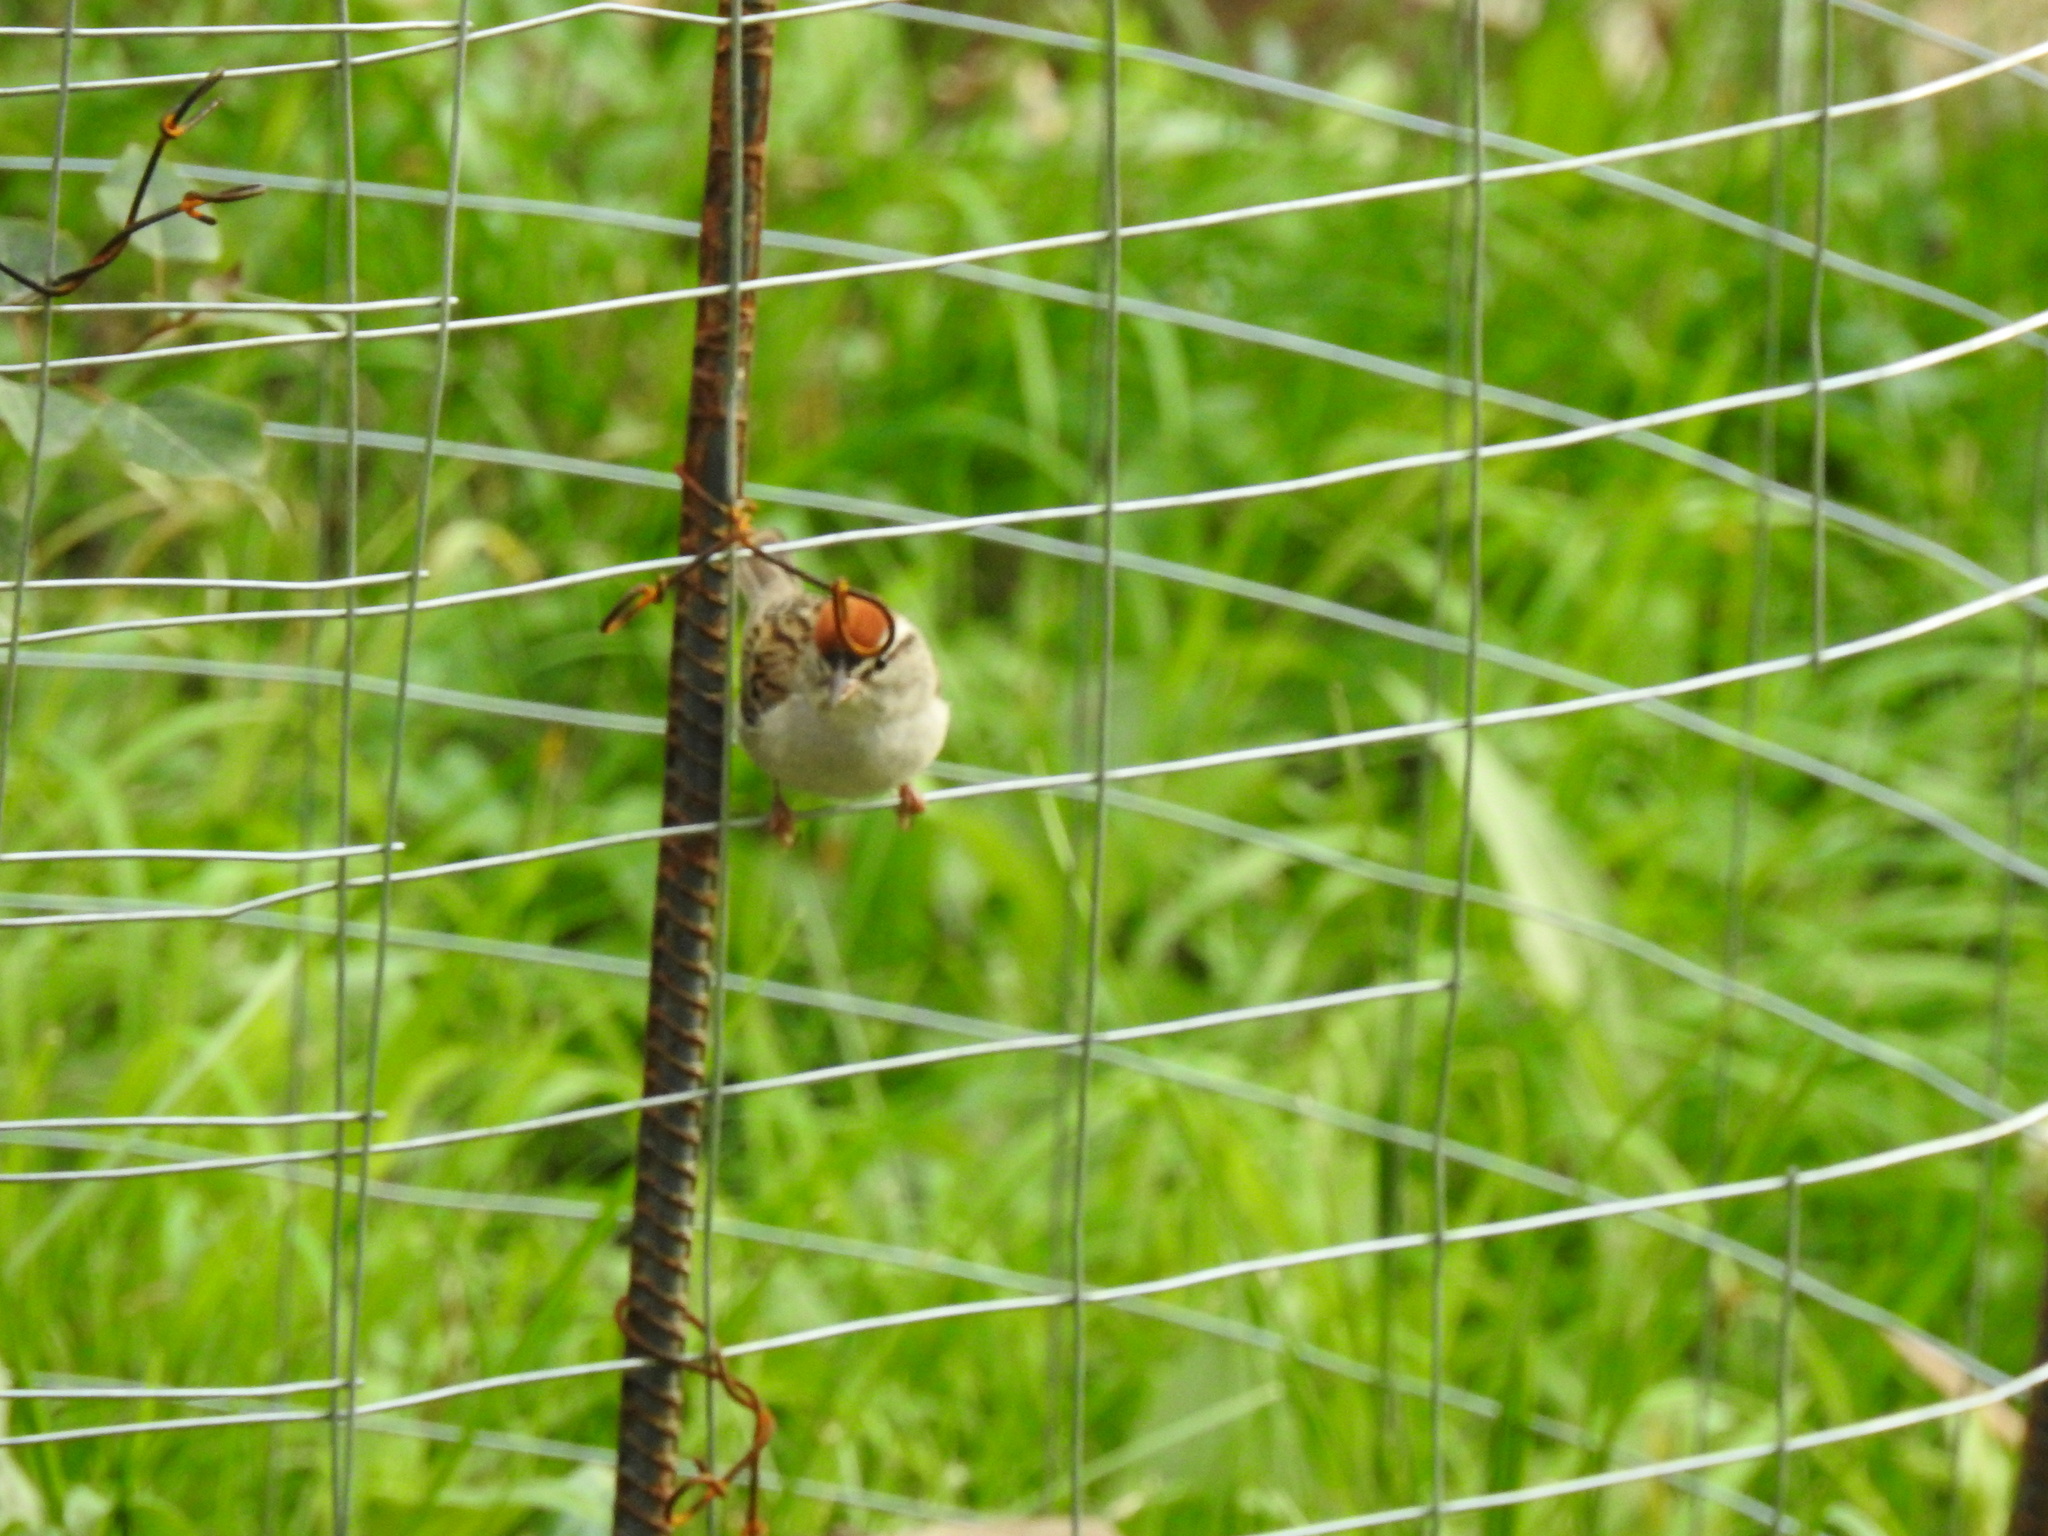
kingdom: Animalia
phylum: Chordata
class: Aves
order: Passeriformes
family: Passerellidae
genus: Spizella
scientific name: Spizella passerina
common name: Chipping sparrow
